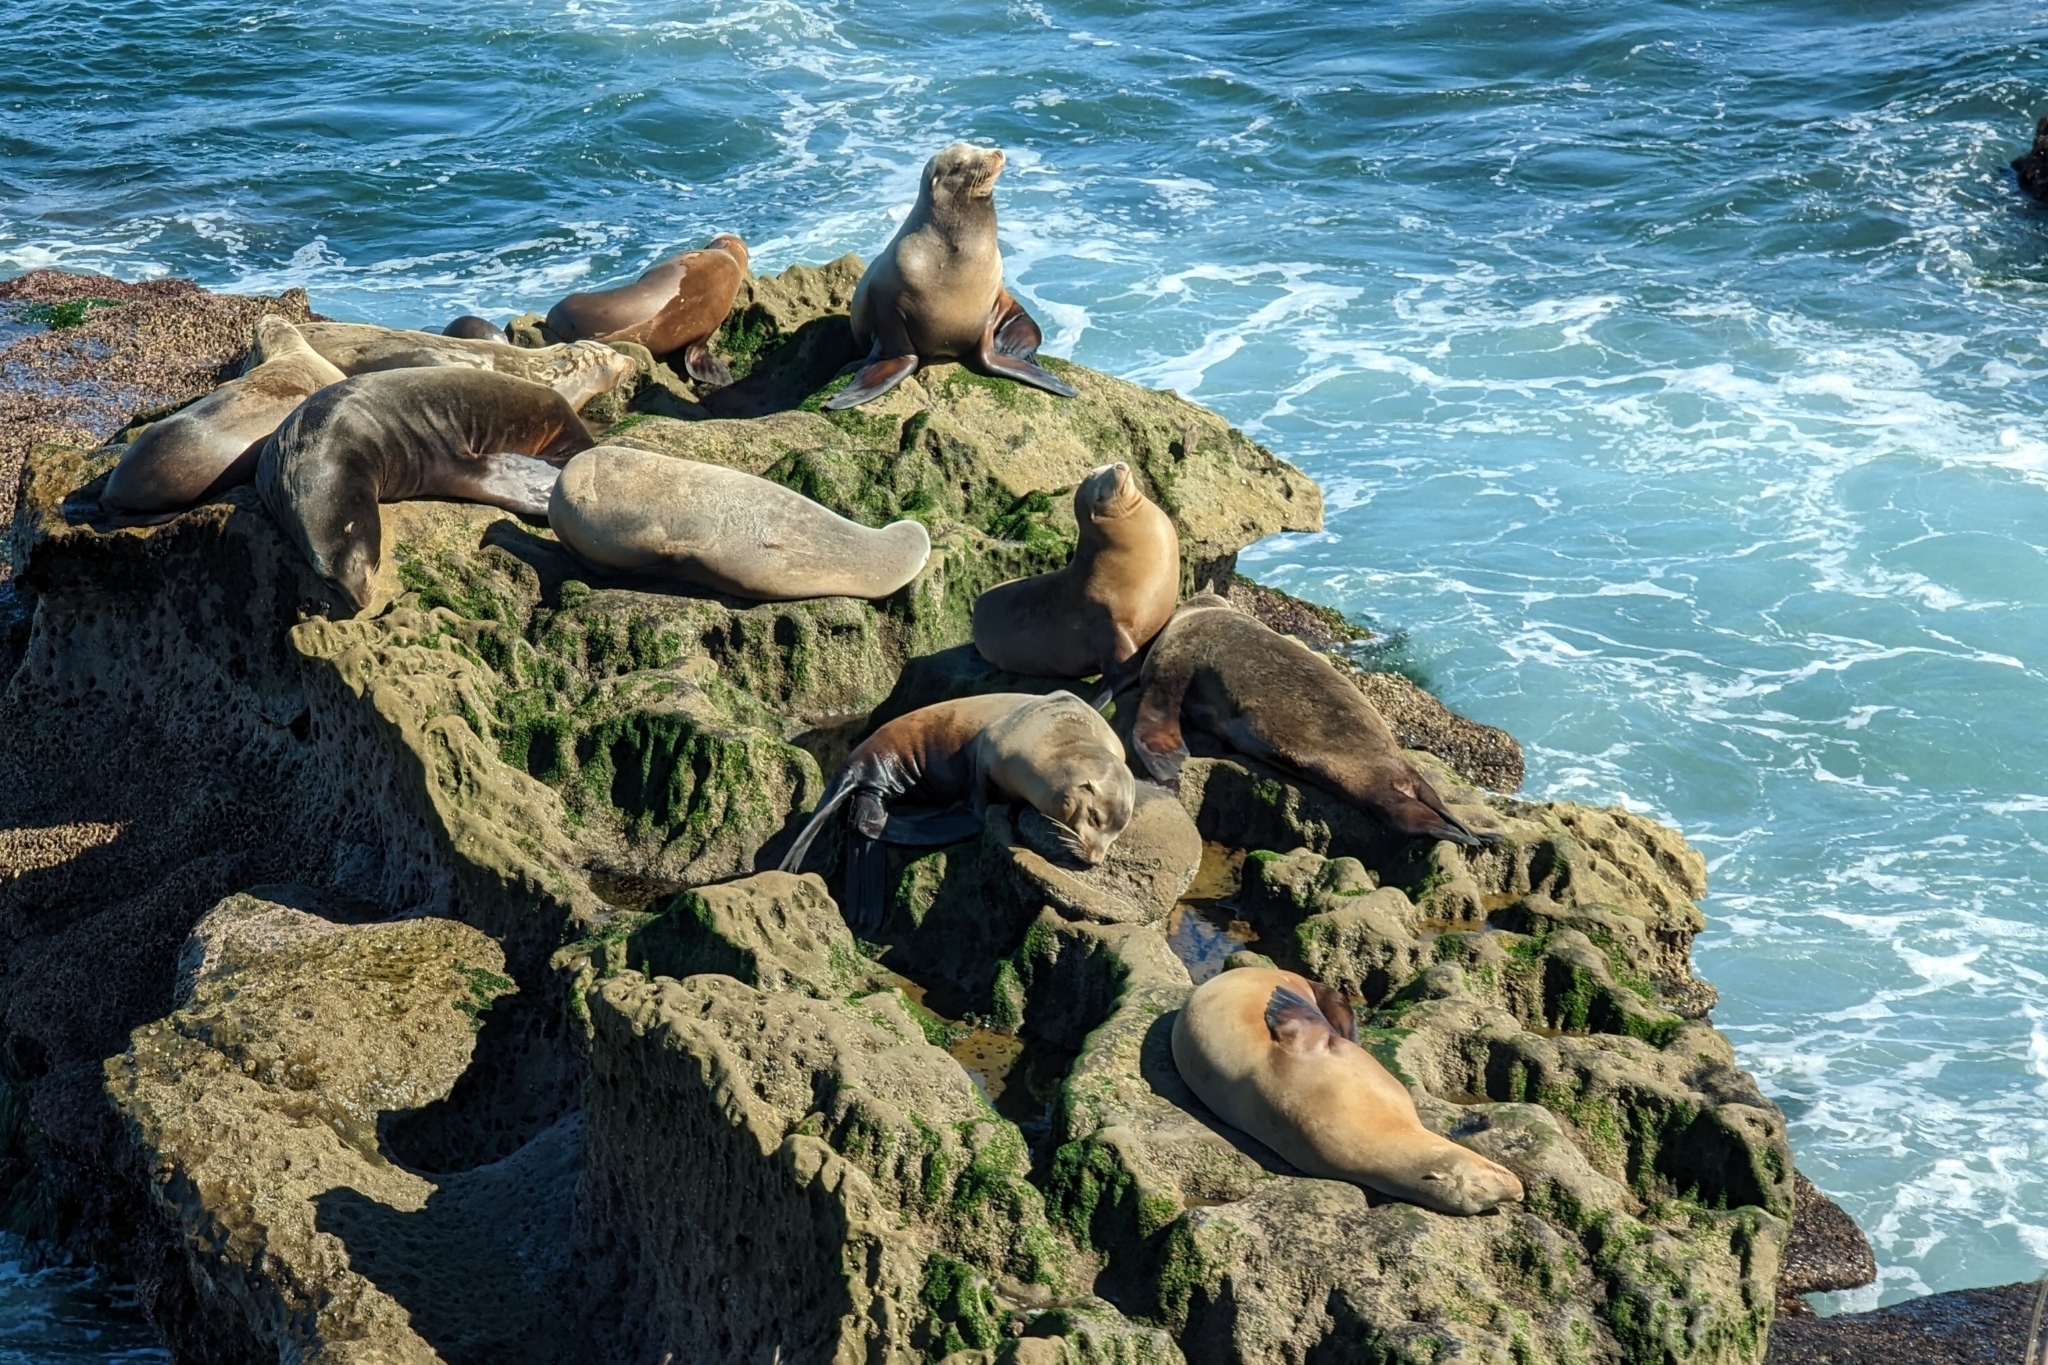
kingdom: Animalia
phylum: Chordata
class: Mammalia
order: Carnivora
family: Otariidae
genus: Zalophus
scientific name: Zalophus californianus
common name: California sea lion
